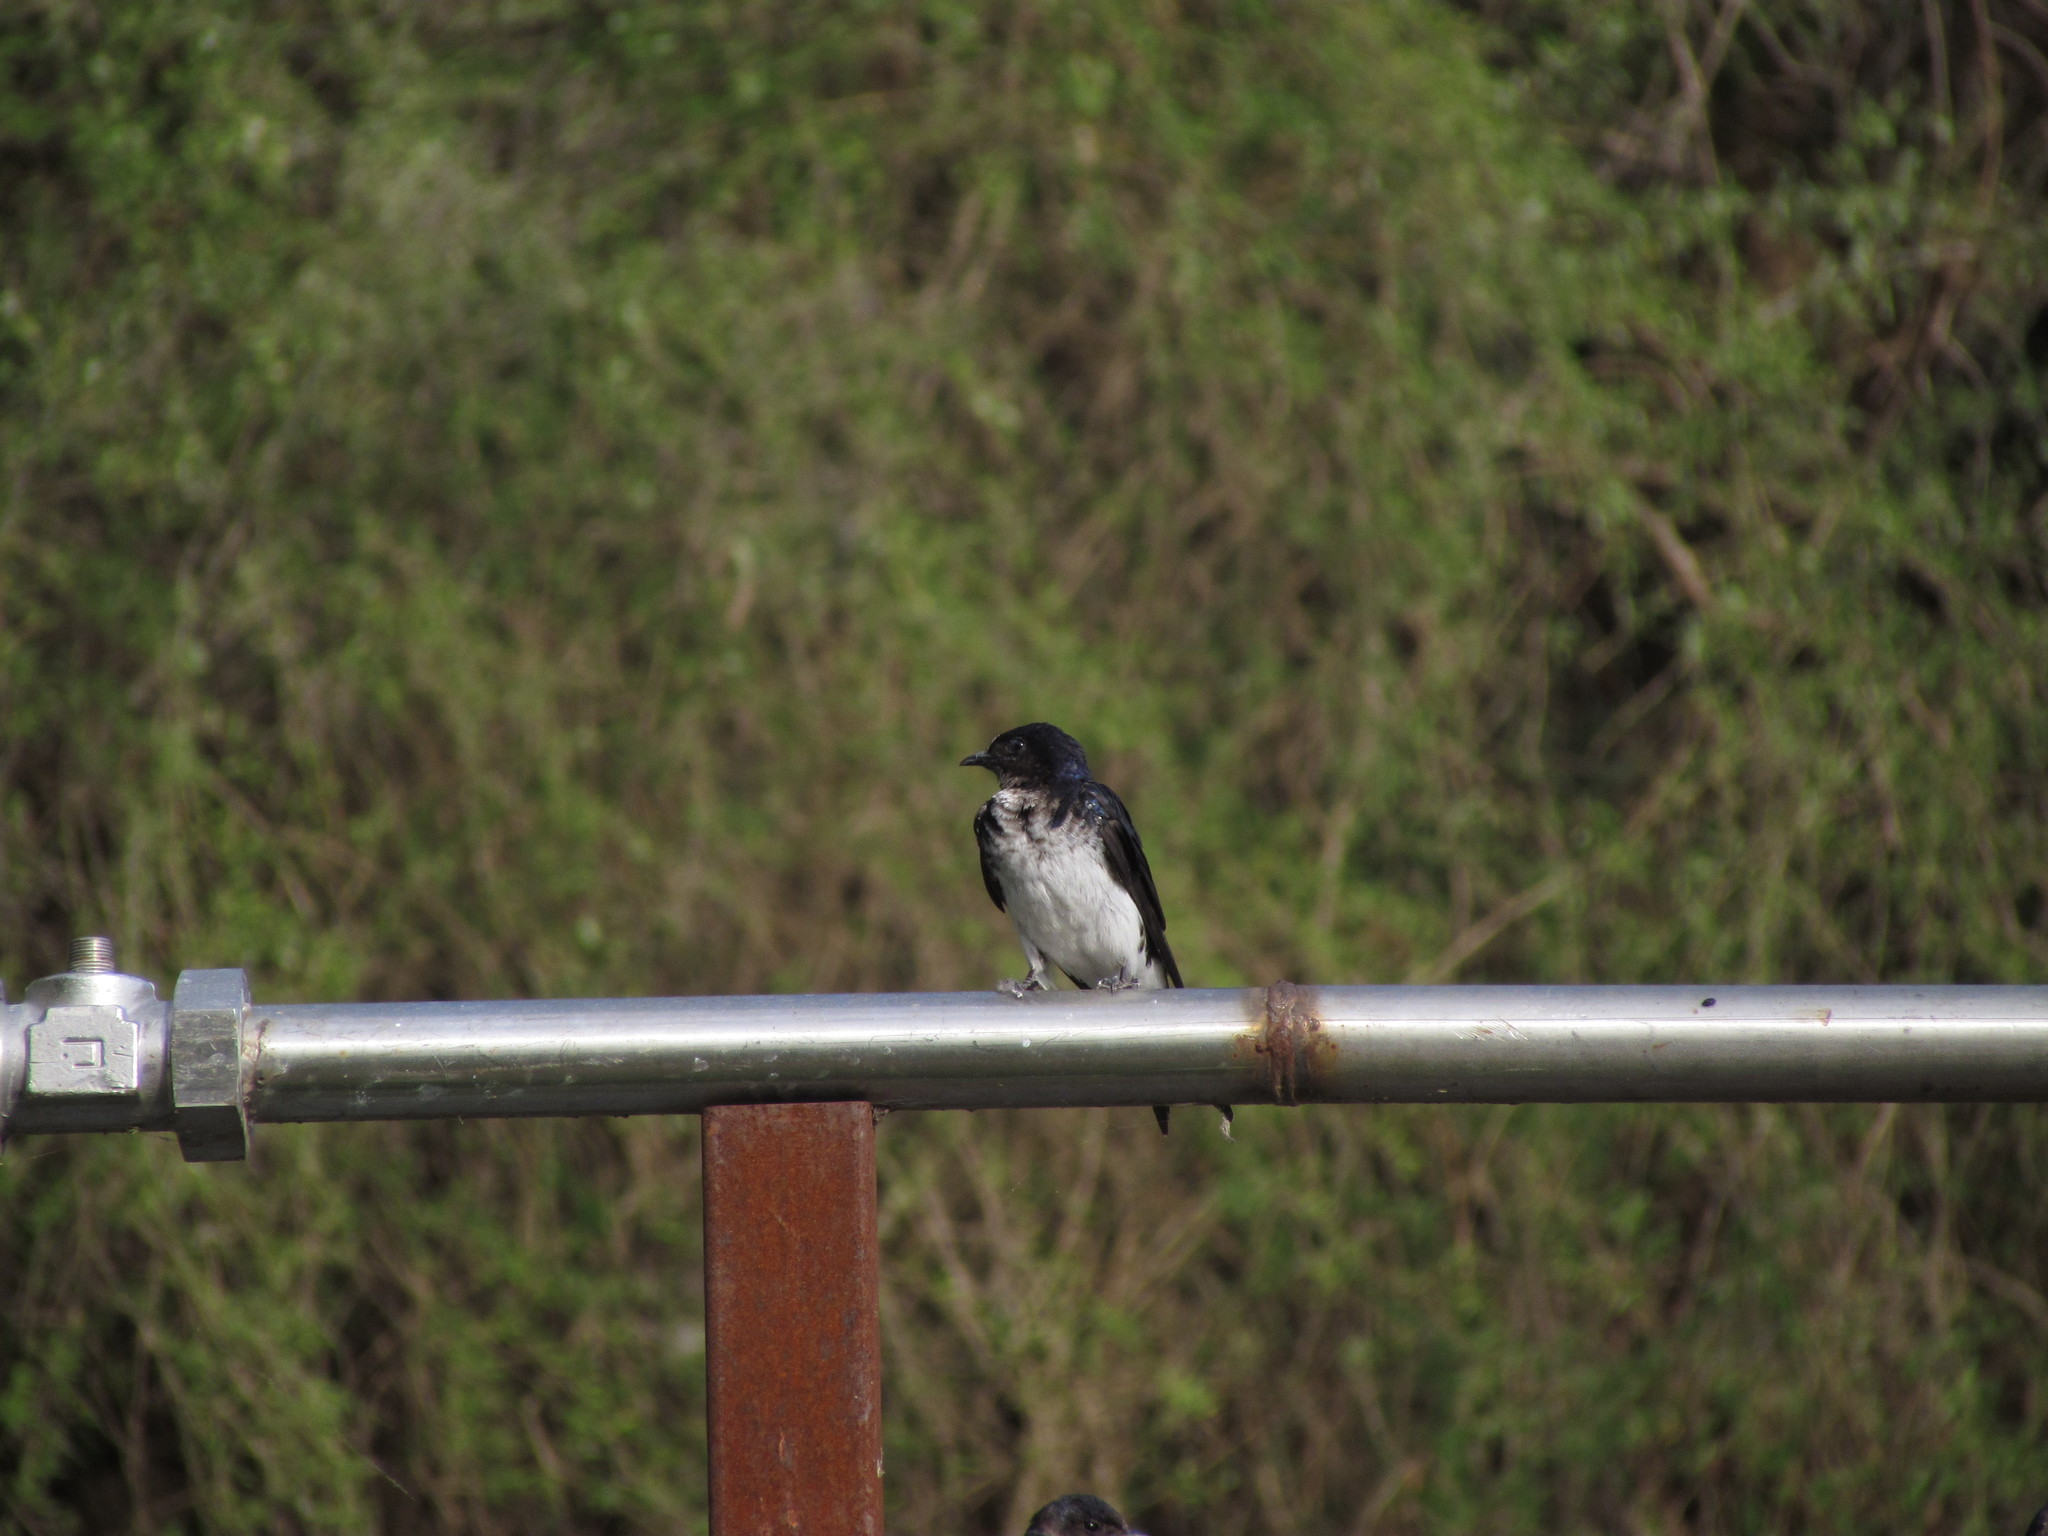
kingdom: Animalia
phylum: Chordata
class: Aves
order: Passeriformes
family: Hirundinidae
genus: Progne
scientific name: Progne chalybea
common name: Grey-breasted martin
